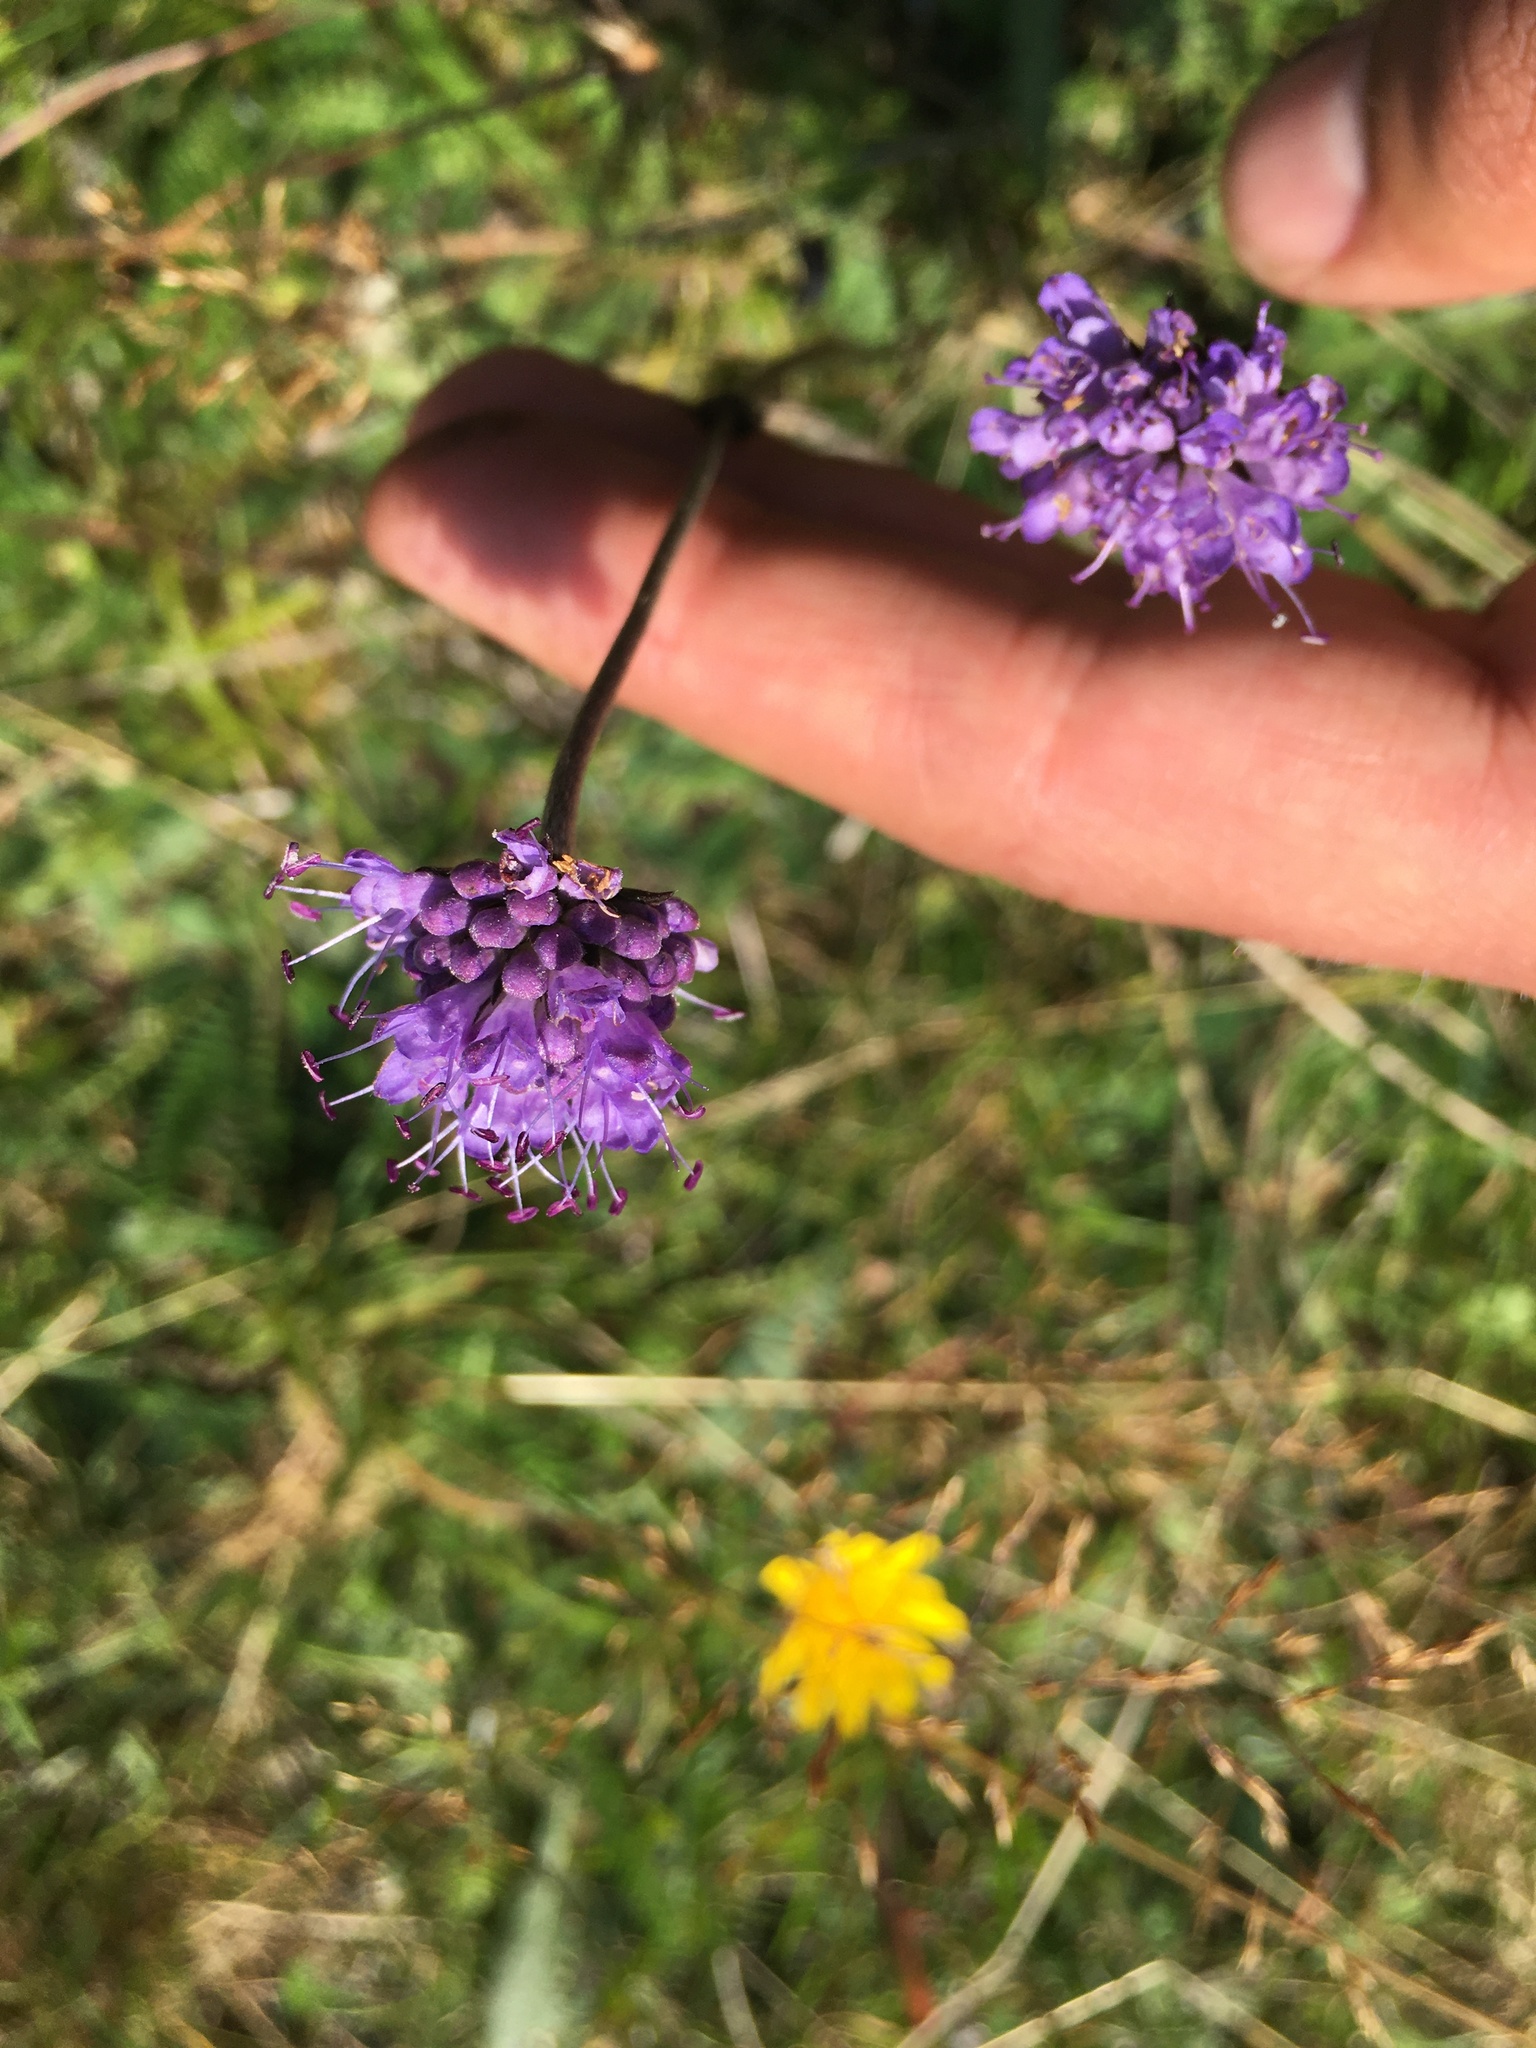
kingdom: Plantae
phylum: Tracheophyta
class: Magnoliopsida
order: Dipsacales
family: Caprifoliaceae
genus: Succisa
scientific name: Succisa pratensis
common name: Devil's-bit
